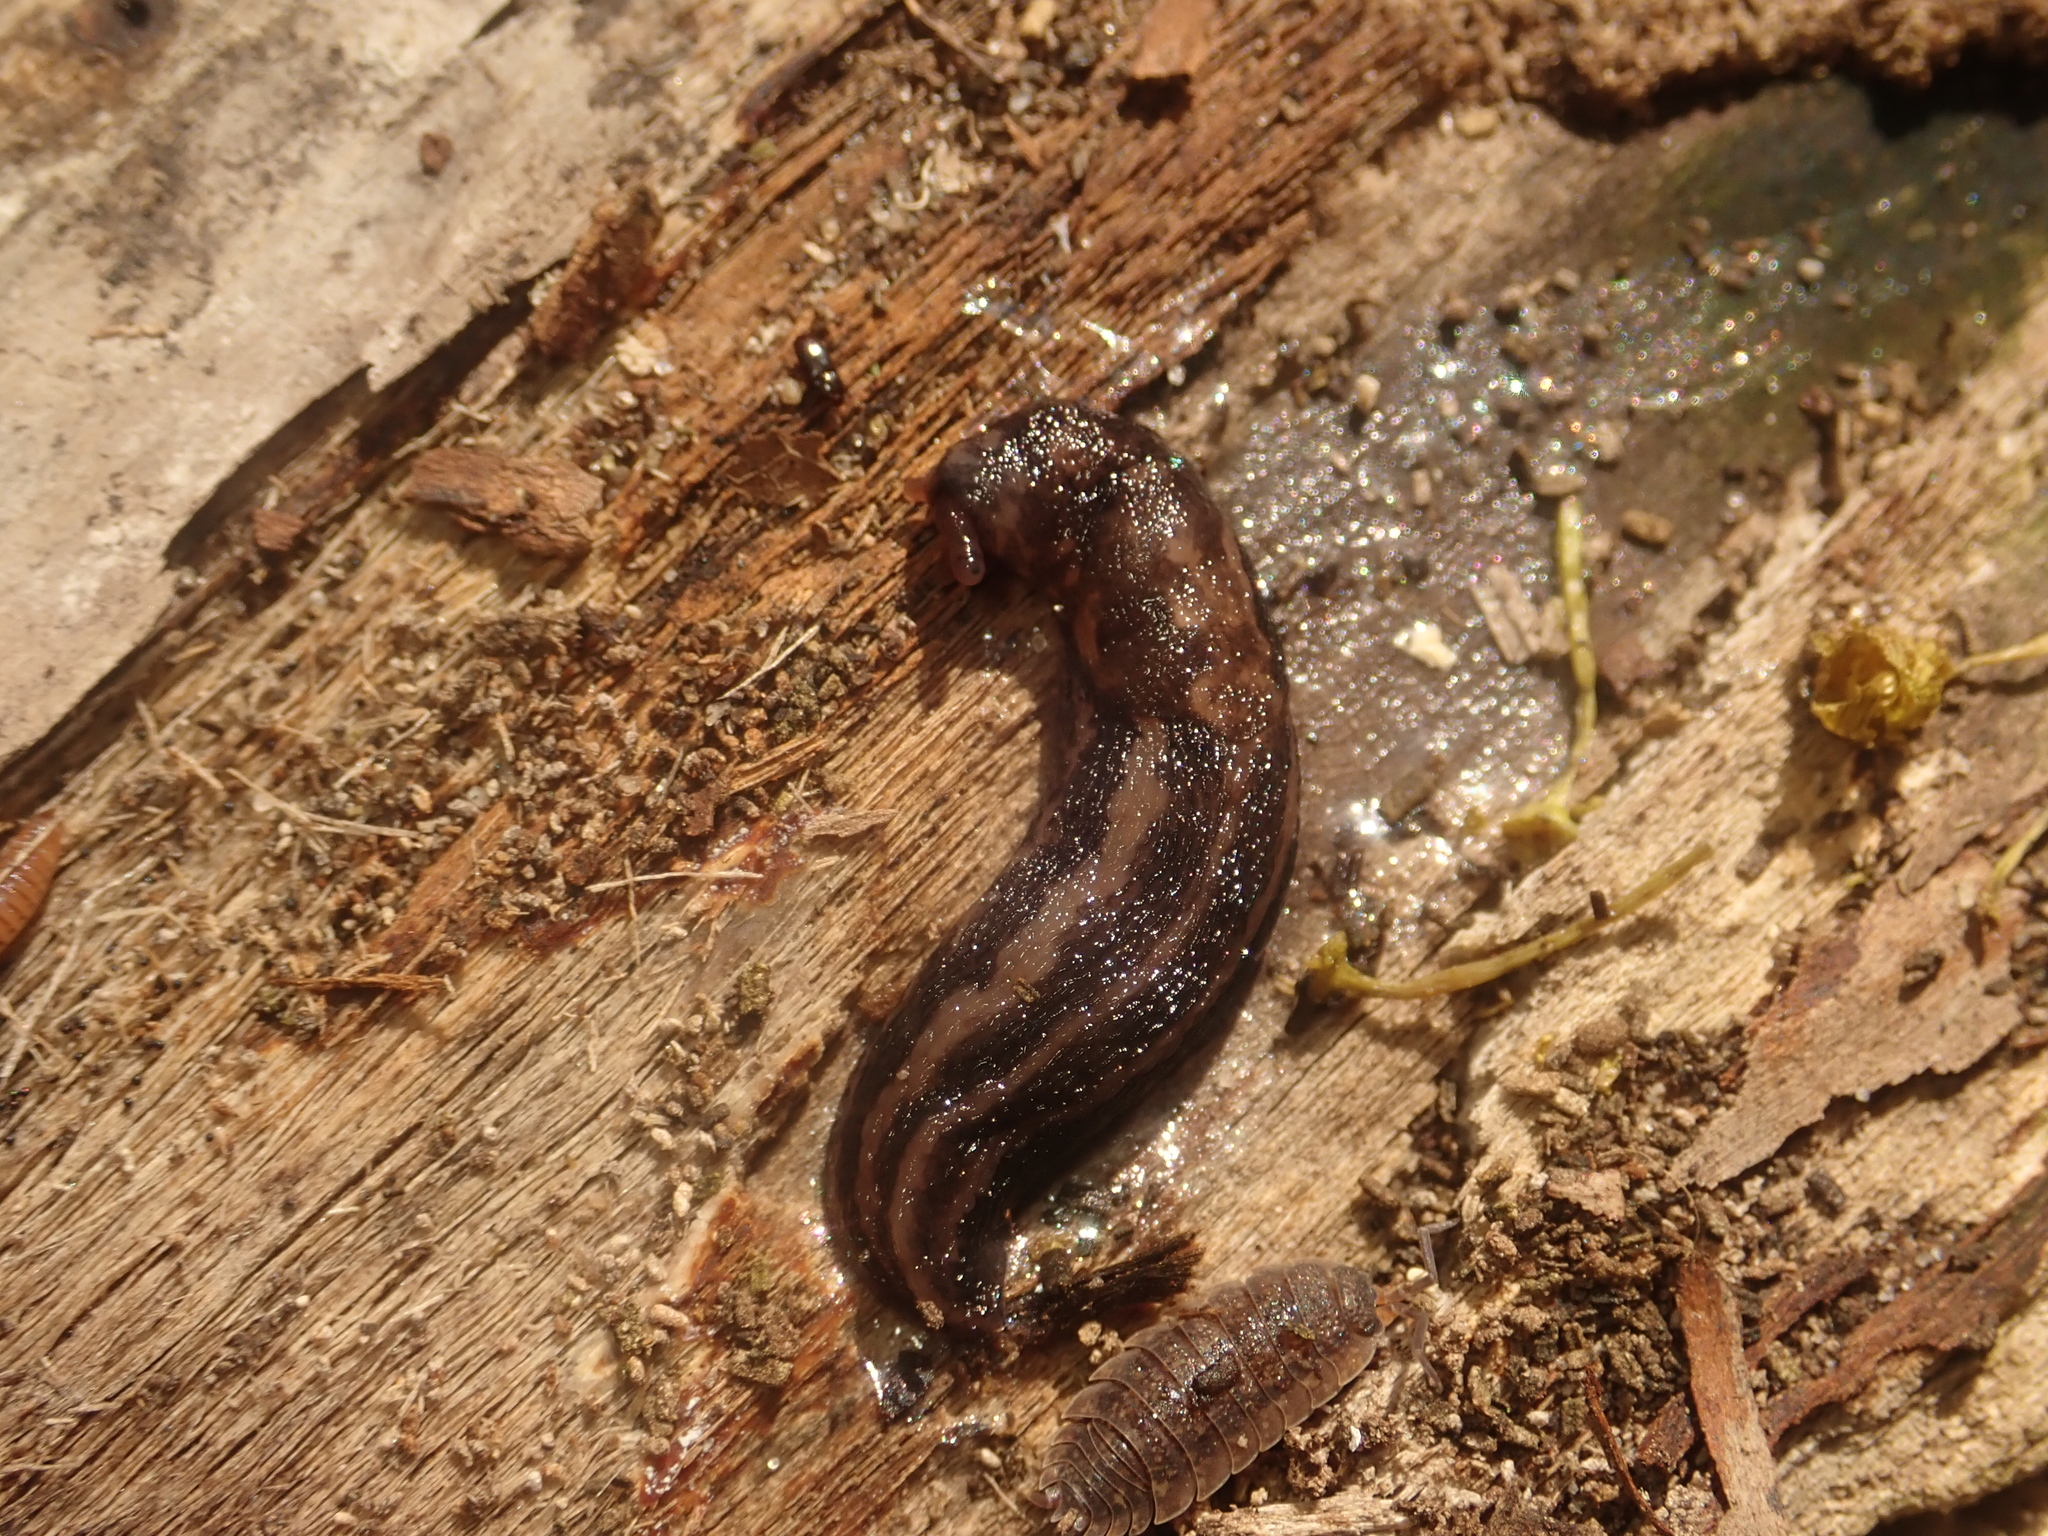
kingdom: Animalia
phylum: Mollusca
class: Gastropoda
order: Stylommatophora
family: Limacidae
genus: Limax
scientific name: Limax maximus
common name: Great grey slug
